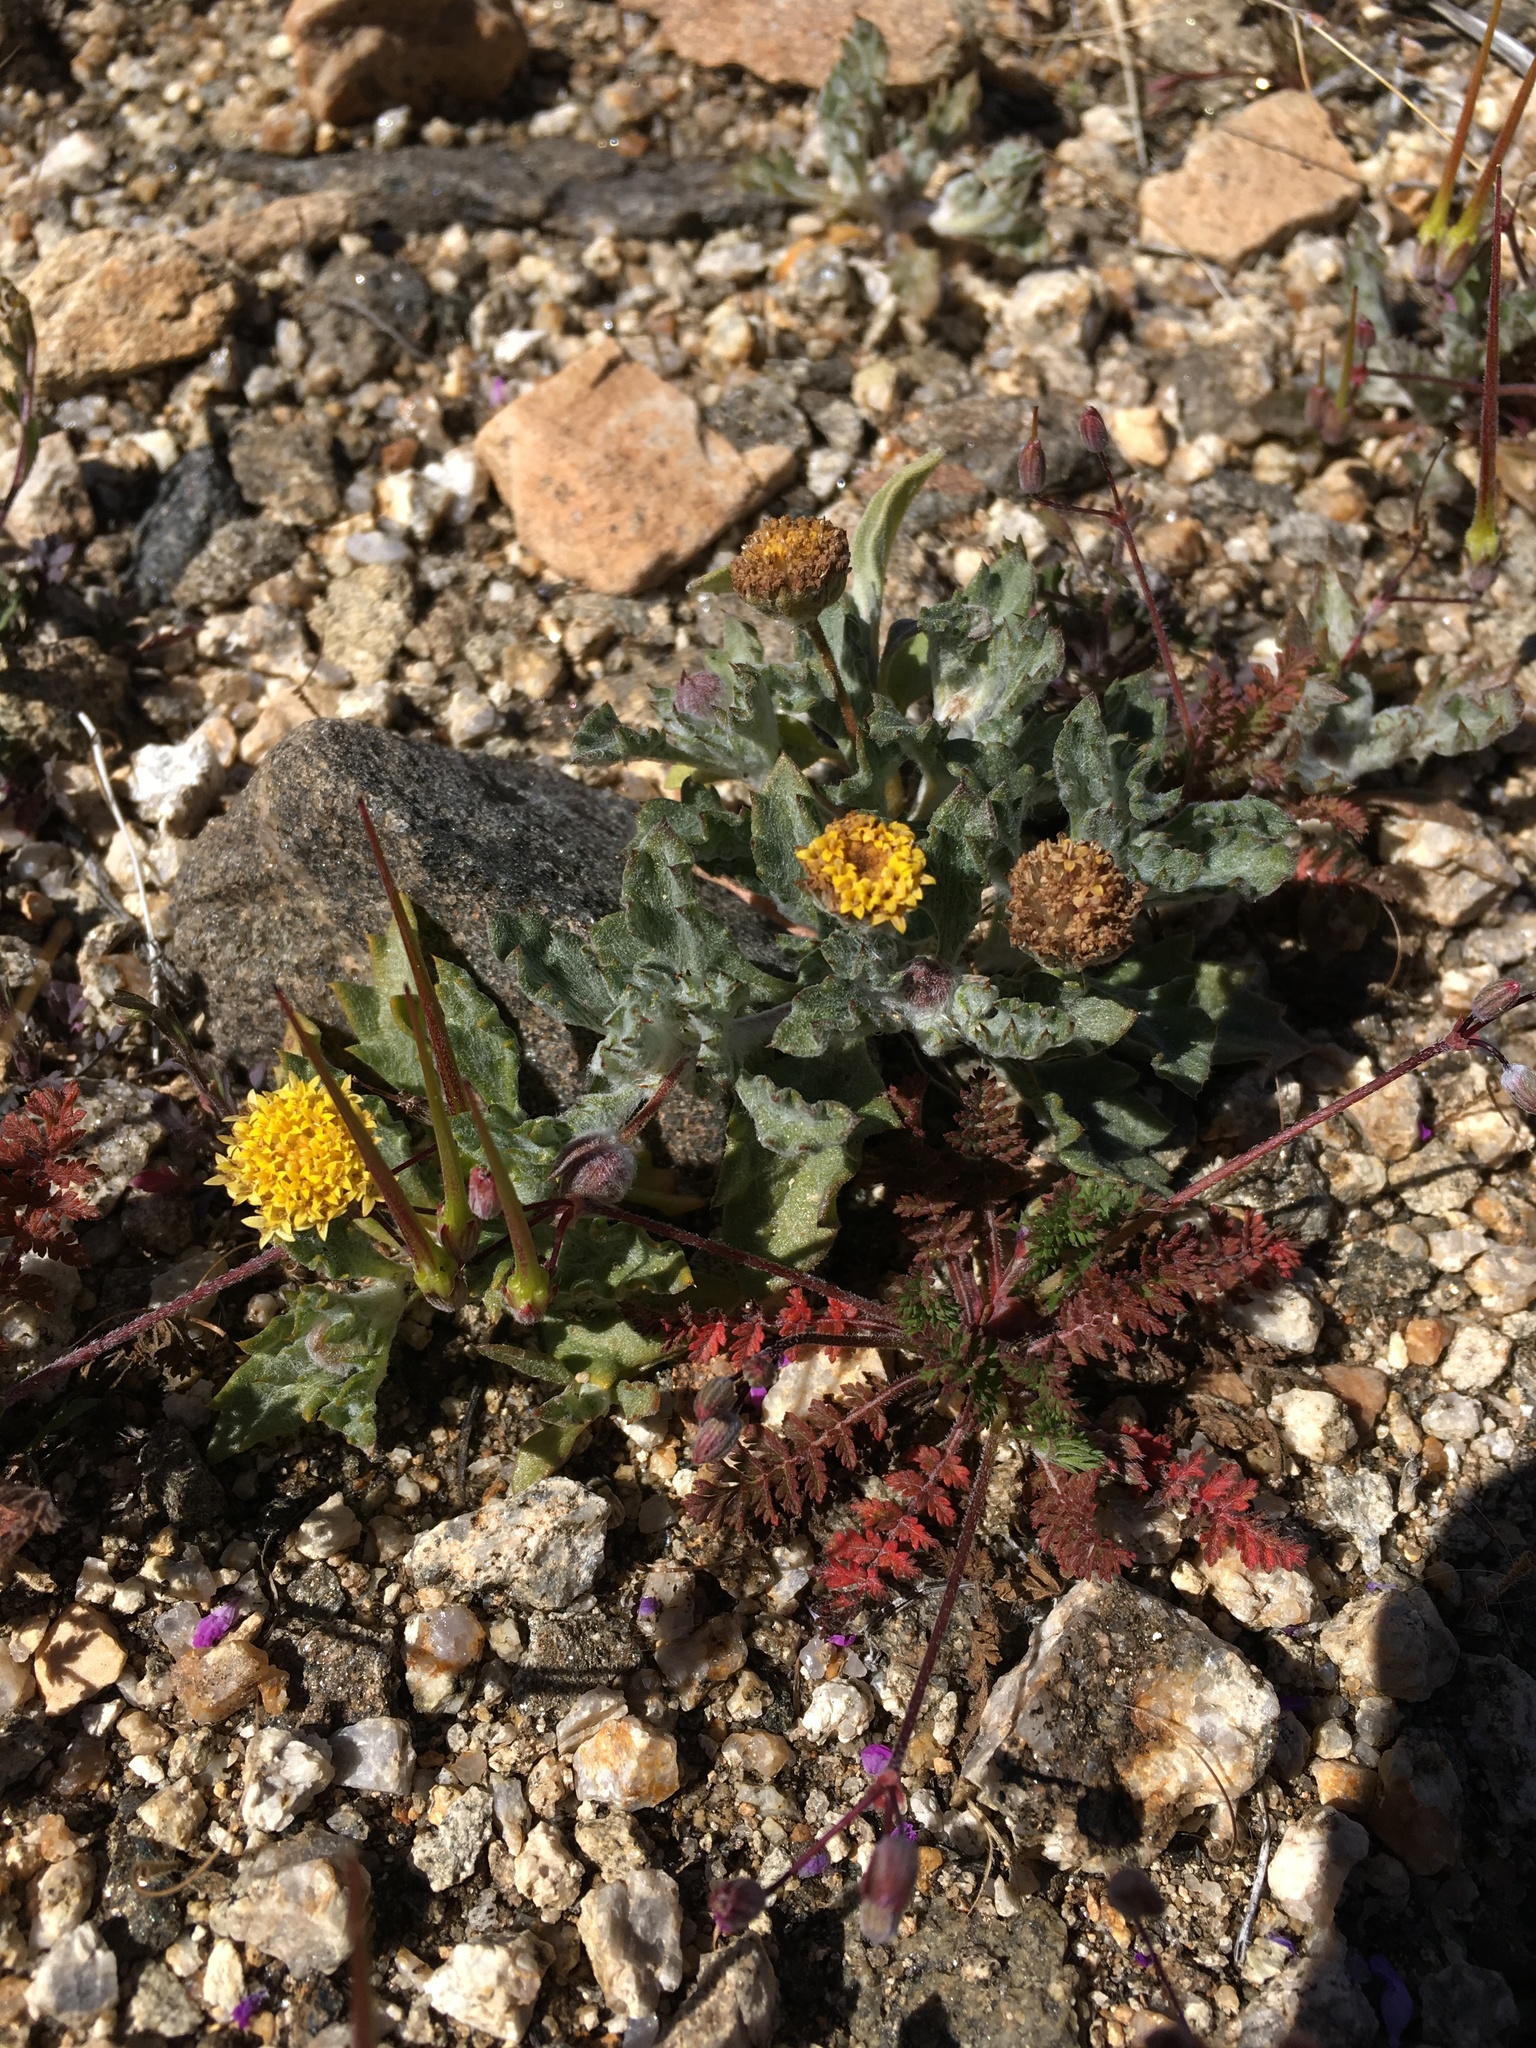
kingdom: Plantae
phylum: Tracheophyta
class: Magnoliopsida
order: Asterales
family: Asteraceae
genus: Trichoptilium
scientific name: Trichoptilium incisum
